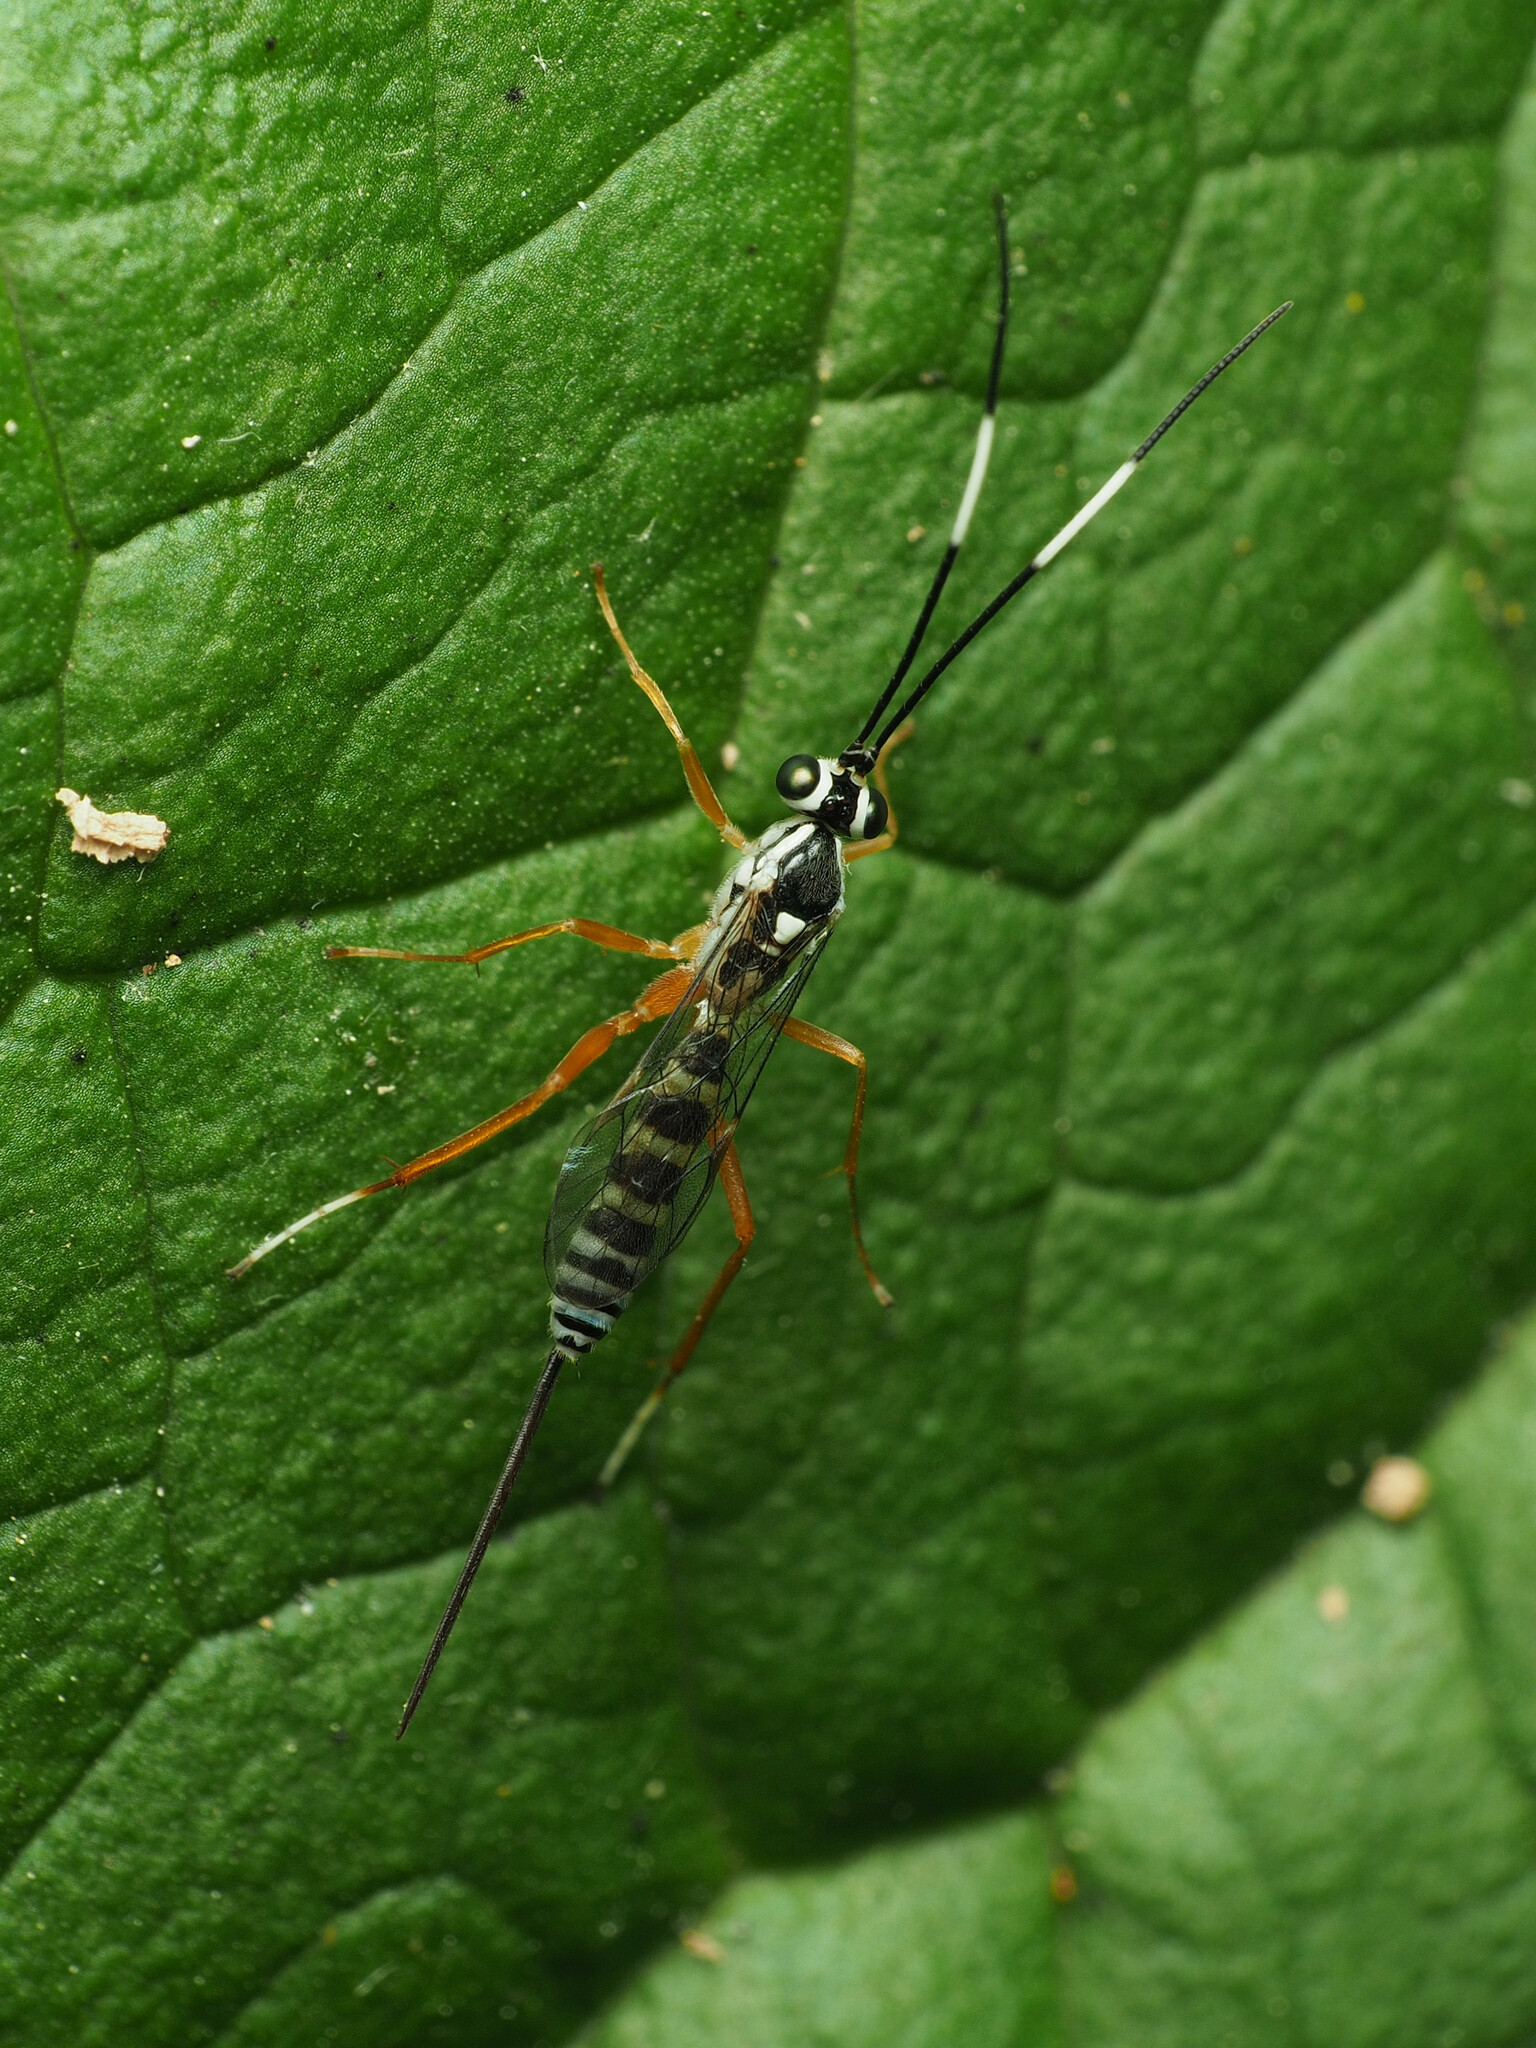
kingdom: Animalia
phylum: Arthropoda
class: Insecta
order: Hymenoptera
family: Ichneumonidae
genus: Sphelodon
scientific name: Sphelodon phoxopteridis
